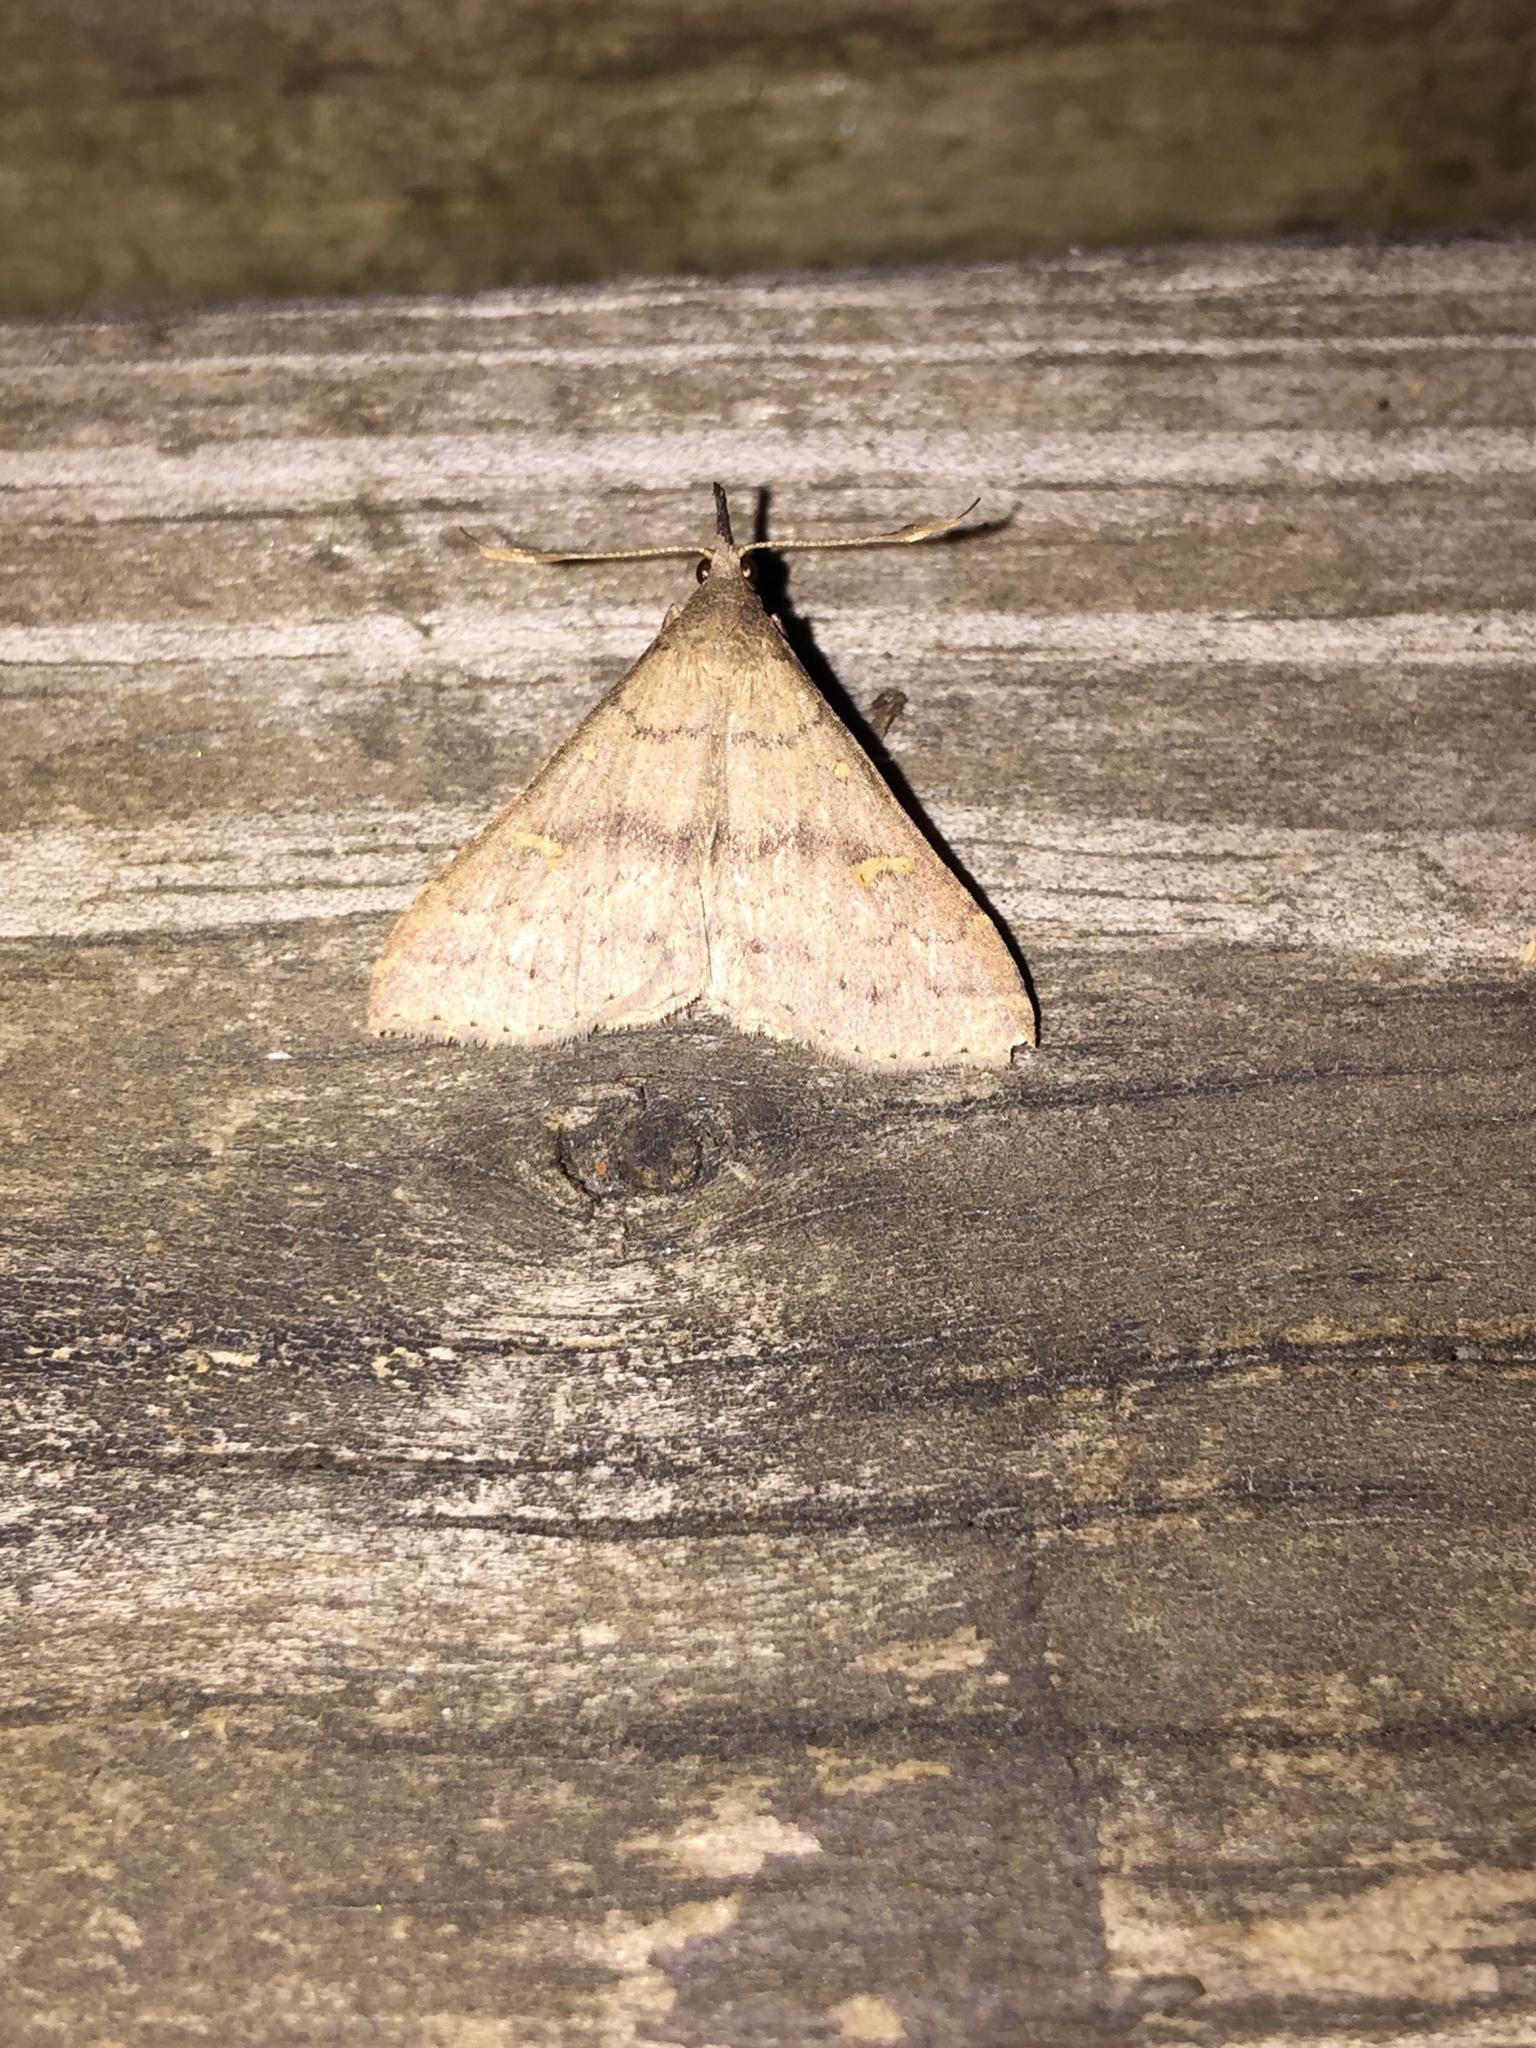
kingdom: Animalia
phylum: Arthropoda
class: Insecta
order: Lepidoptera
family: Erebidae
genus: Renia
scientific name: Renia adspergillus
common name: Speckled renia moth
